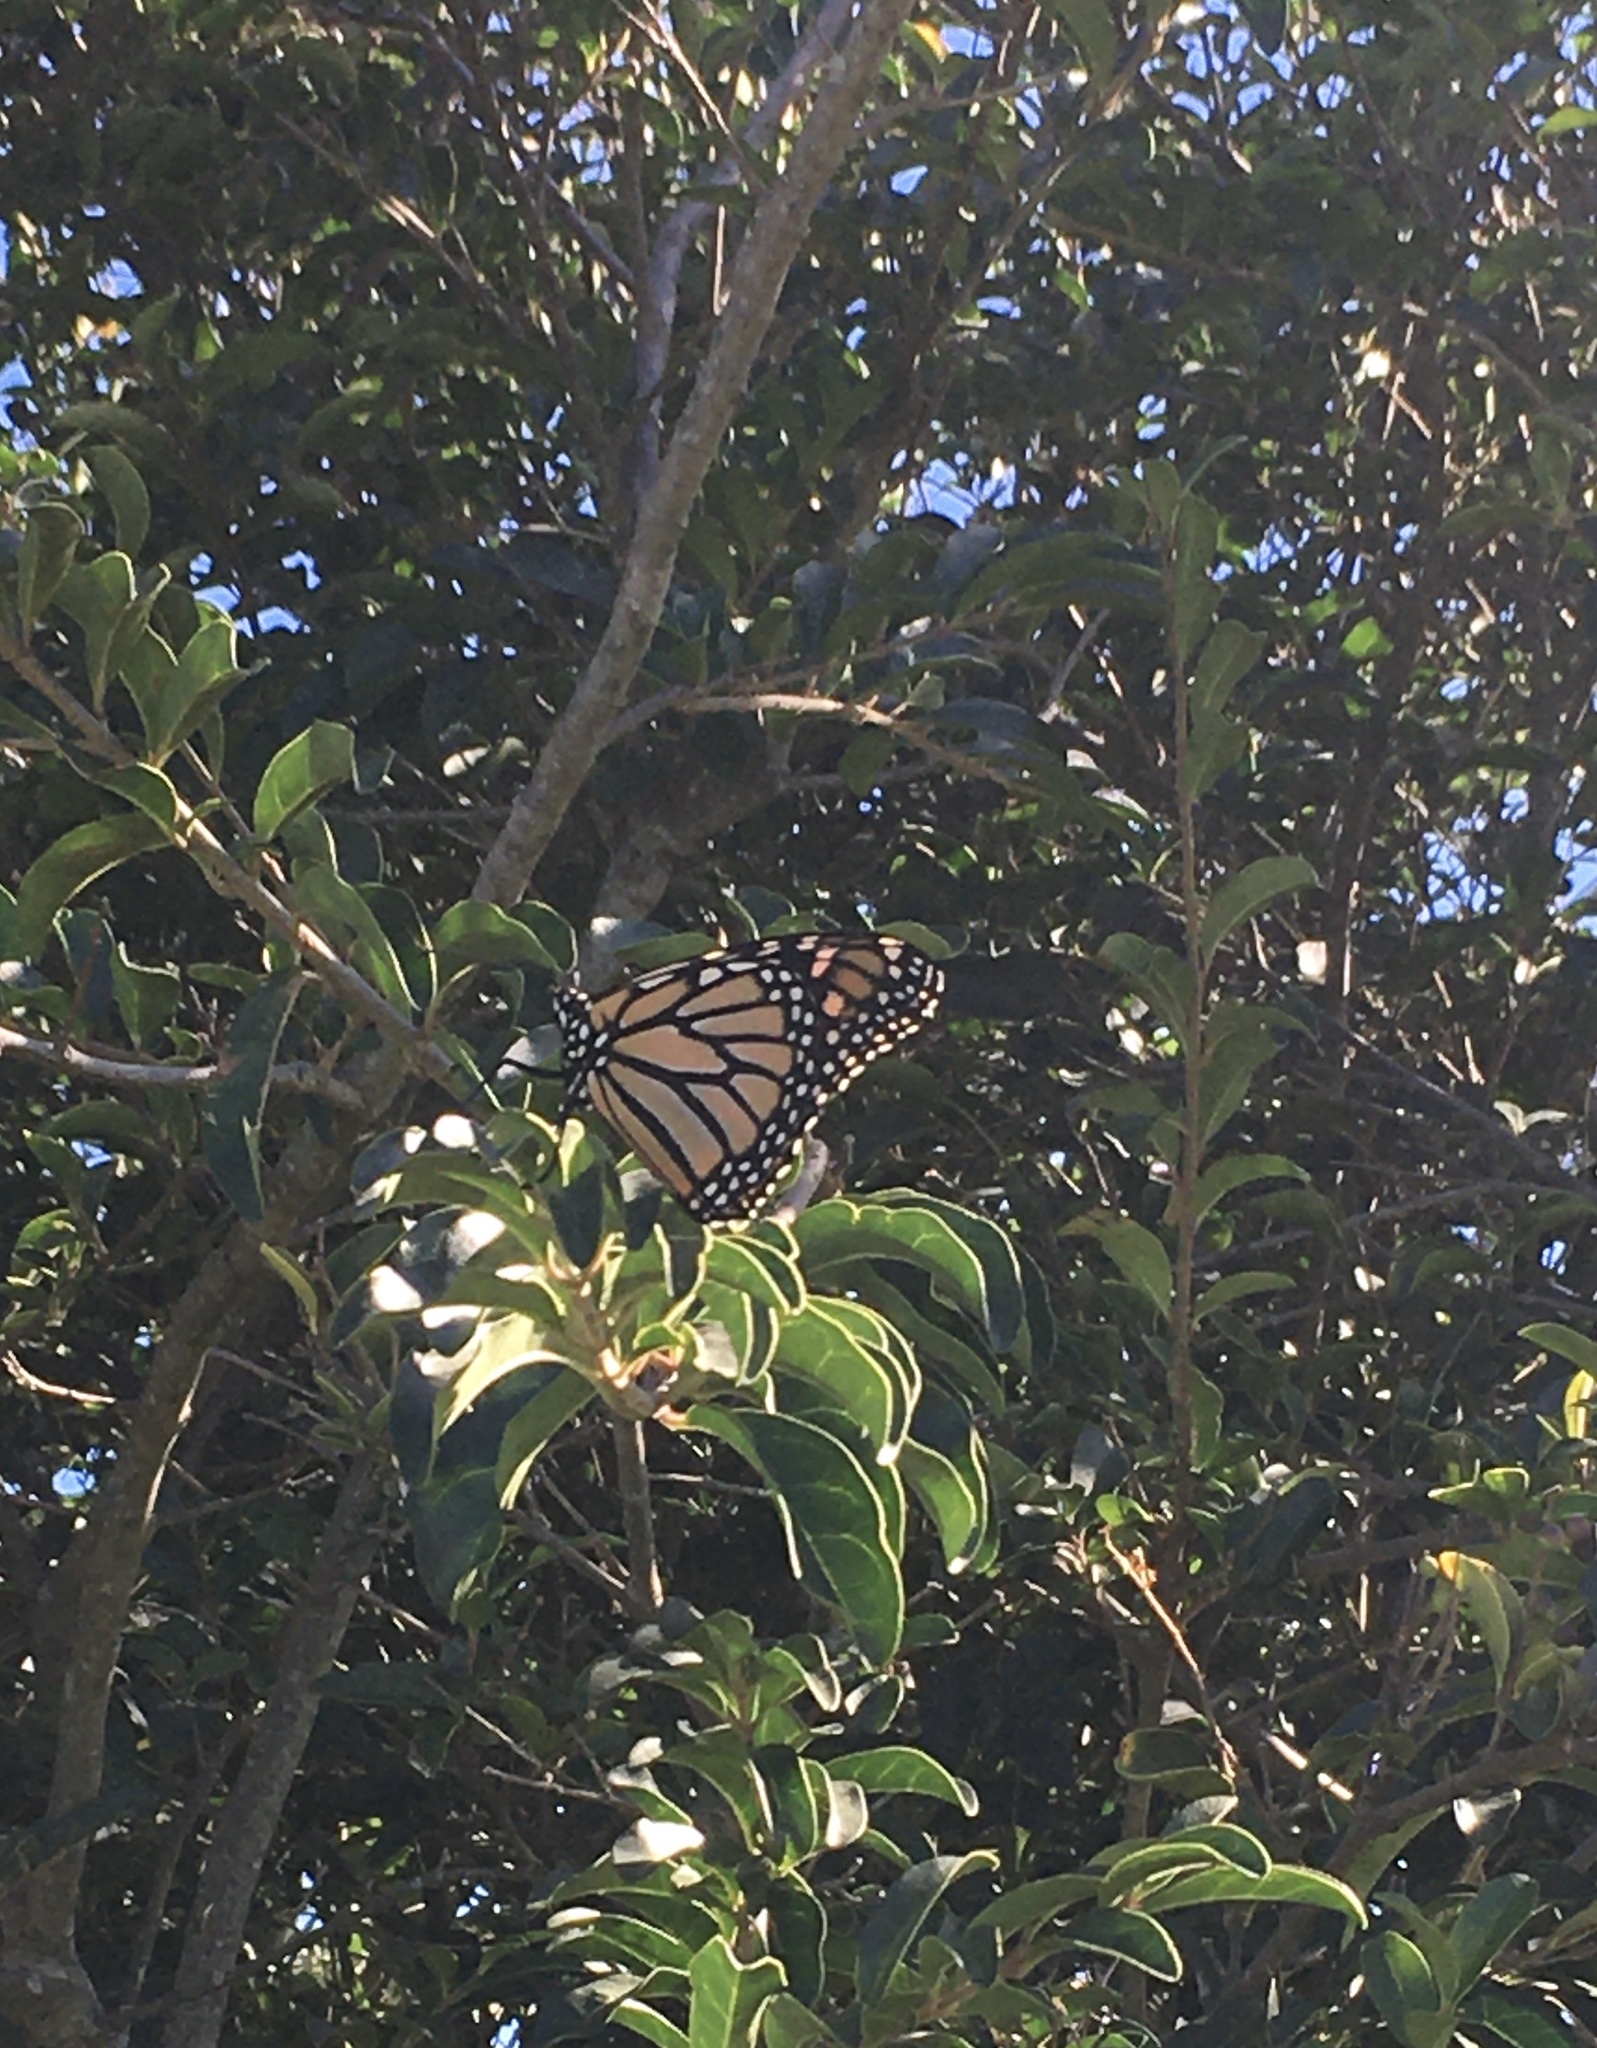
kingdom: Animalia
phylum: Arthropoda
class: Insecta
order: Lepidoptera
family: Nymphalidae
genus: Danaus
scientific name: Danaus plexippus
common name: Monarch
